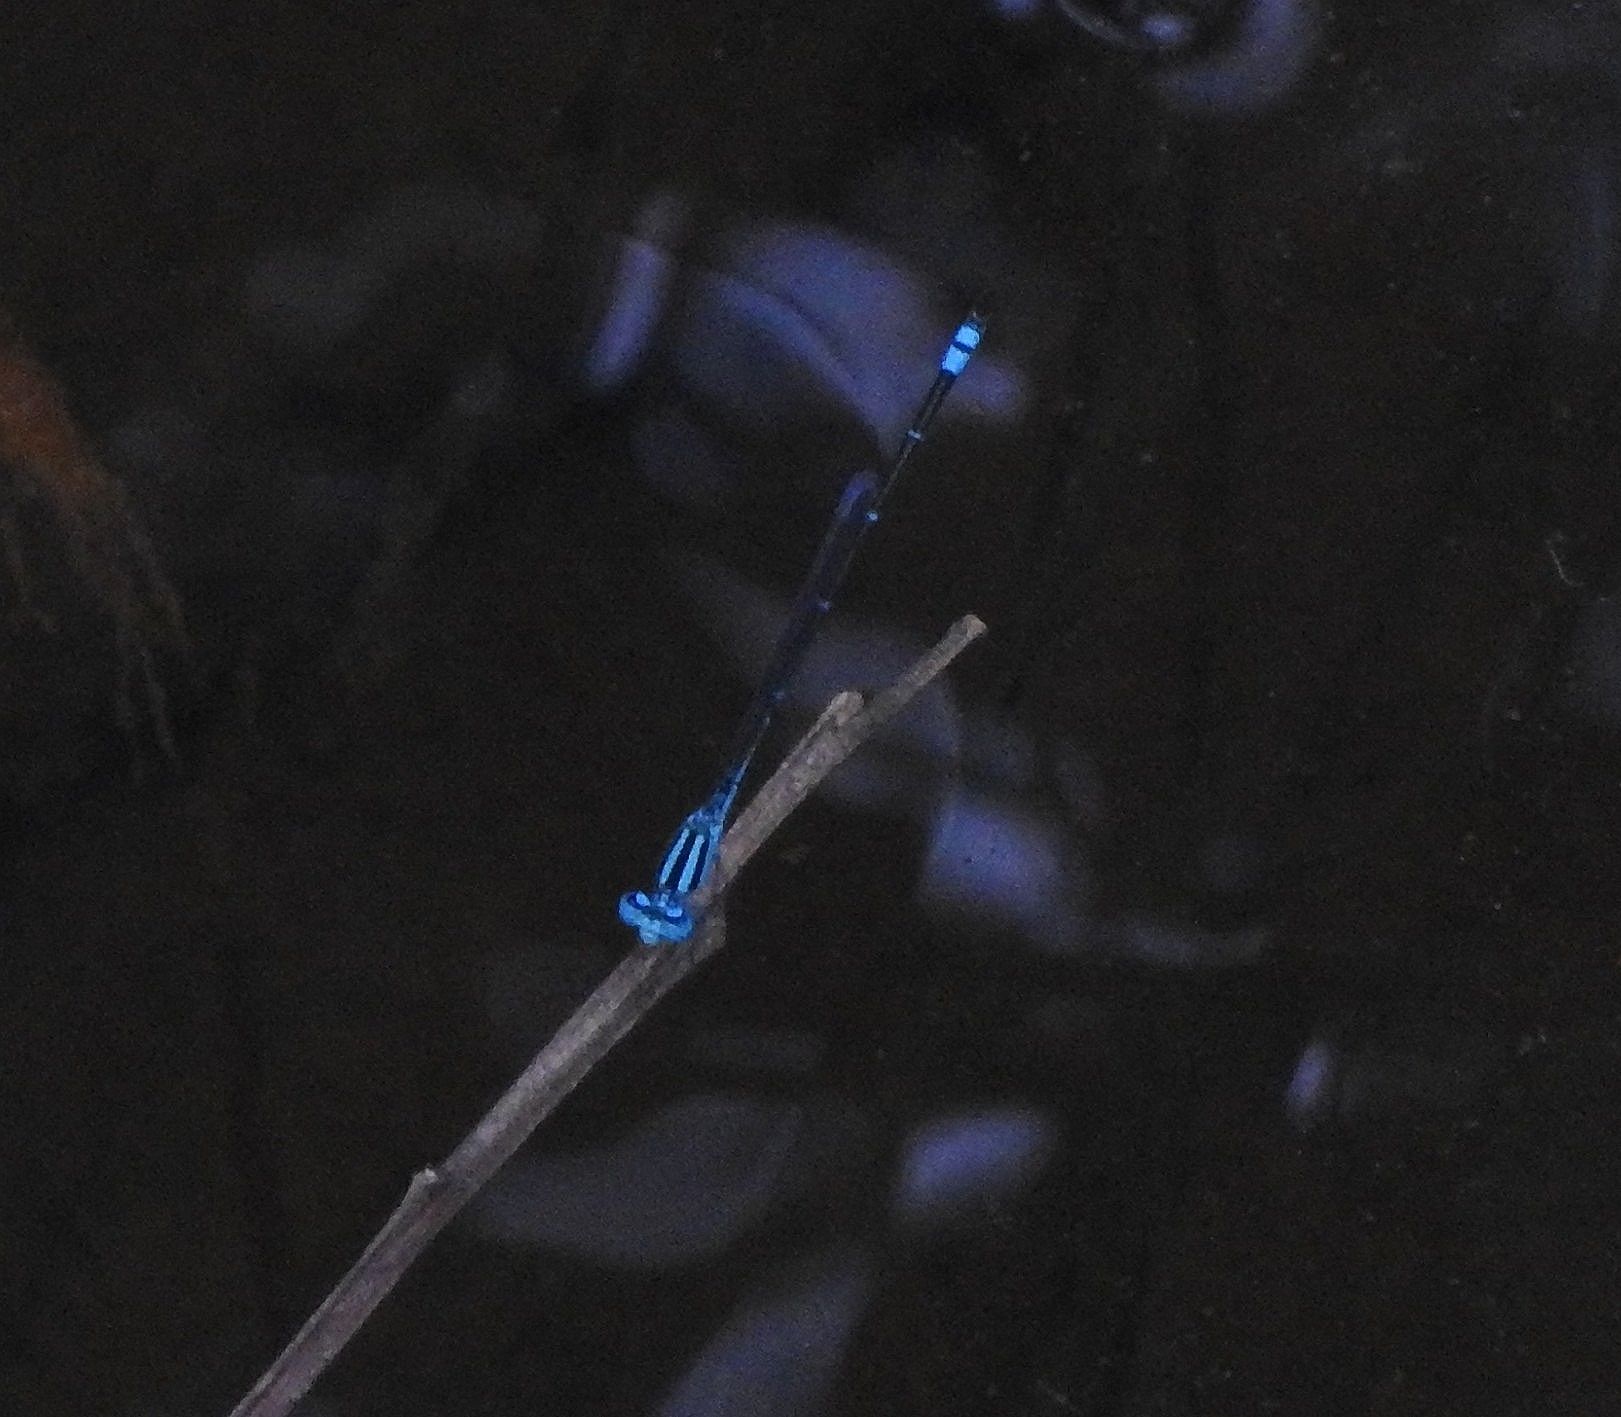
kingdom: Animalia
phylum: Arthropoda
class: Insecta
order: Odonata
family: Coenagrionidae
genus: Pseudagrion
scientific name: Pseudagrion microcephalum
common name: Blue riverdamsel
